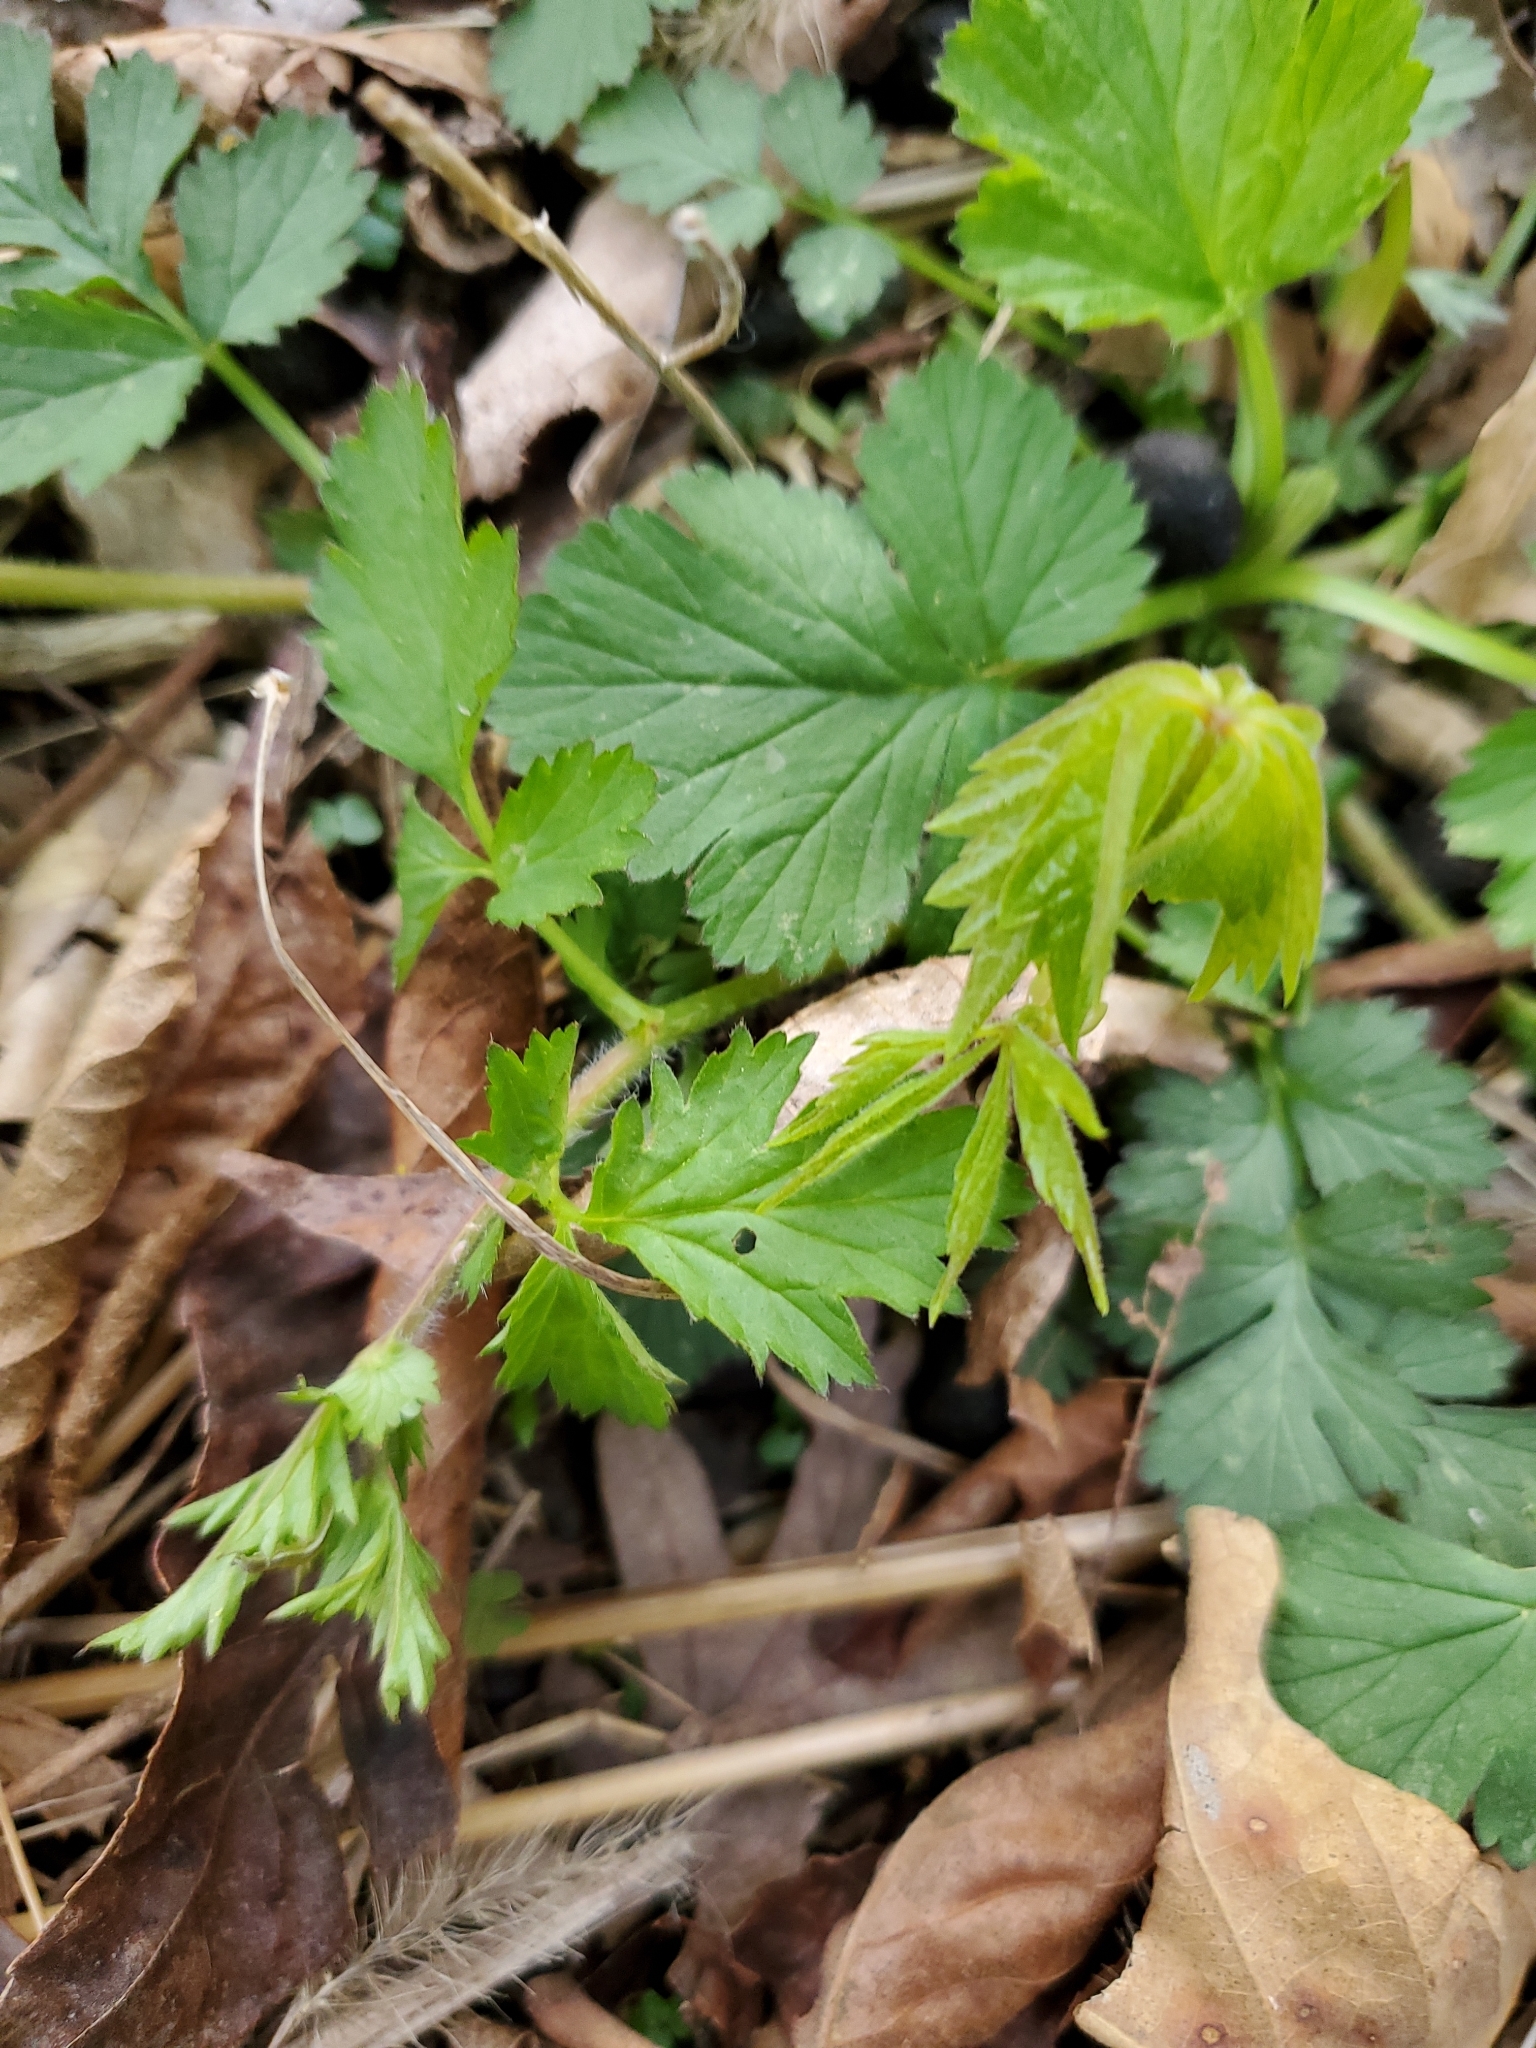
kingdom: Plantae
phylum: Tracheophyta
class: Magnoliopsida
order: Rosales
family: Rosaceae
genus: Geum
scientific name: Geum vernum
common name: Spring avens
